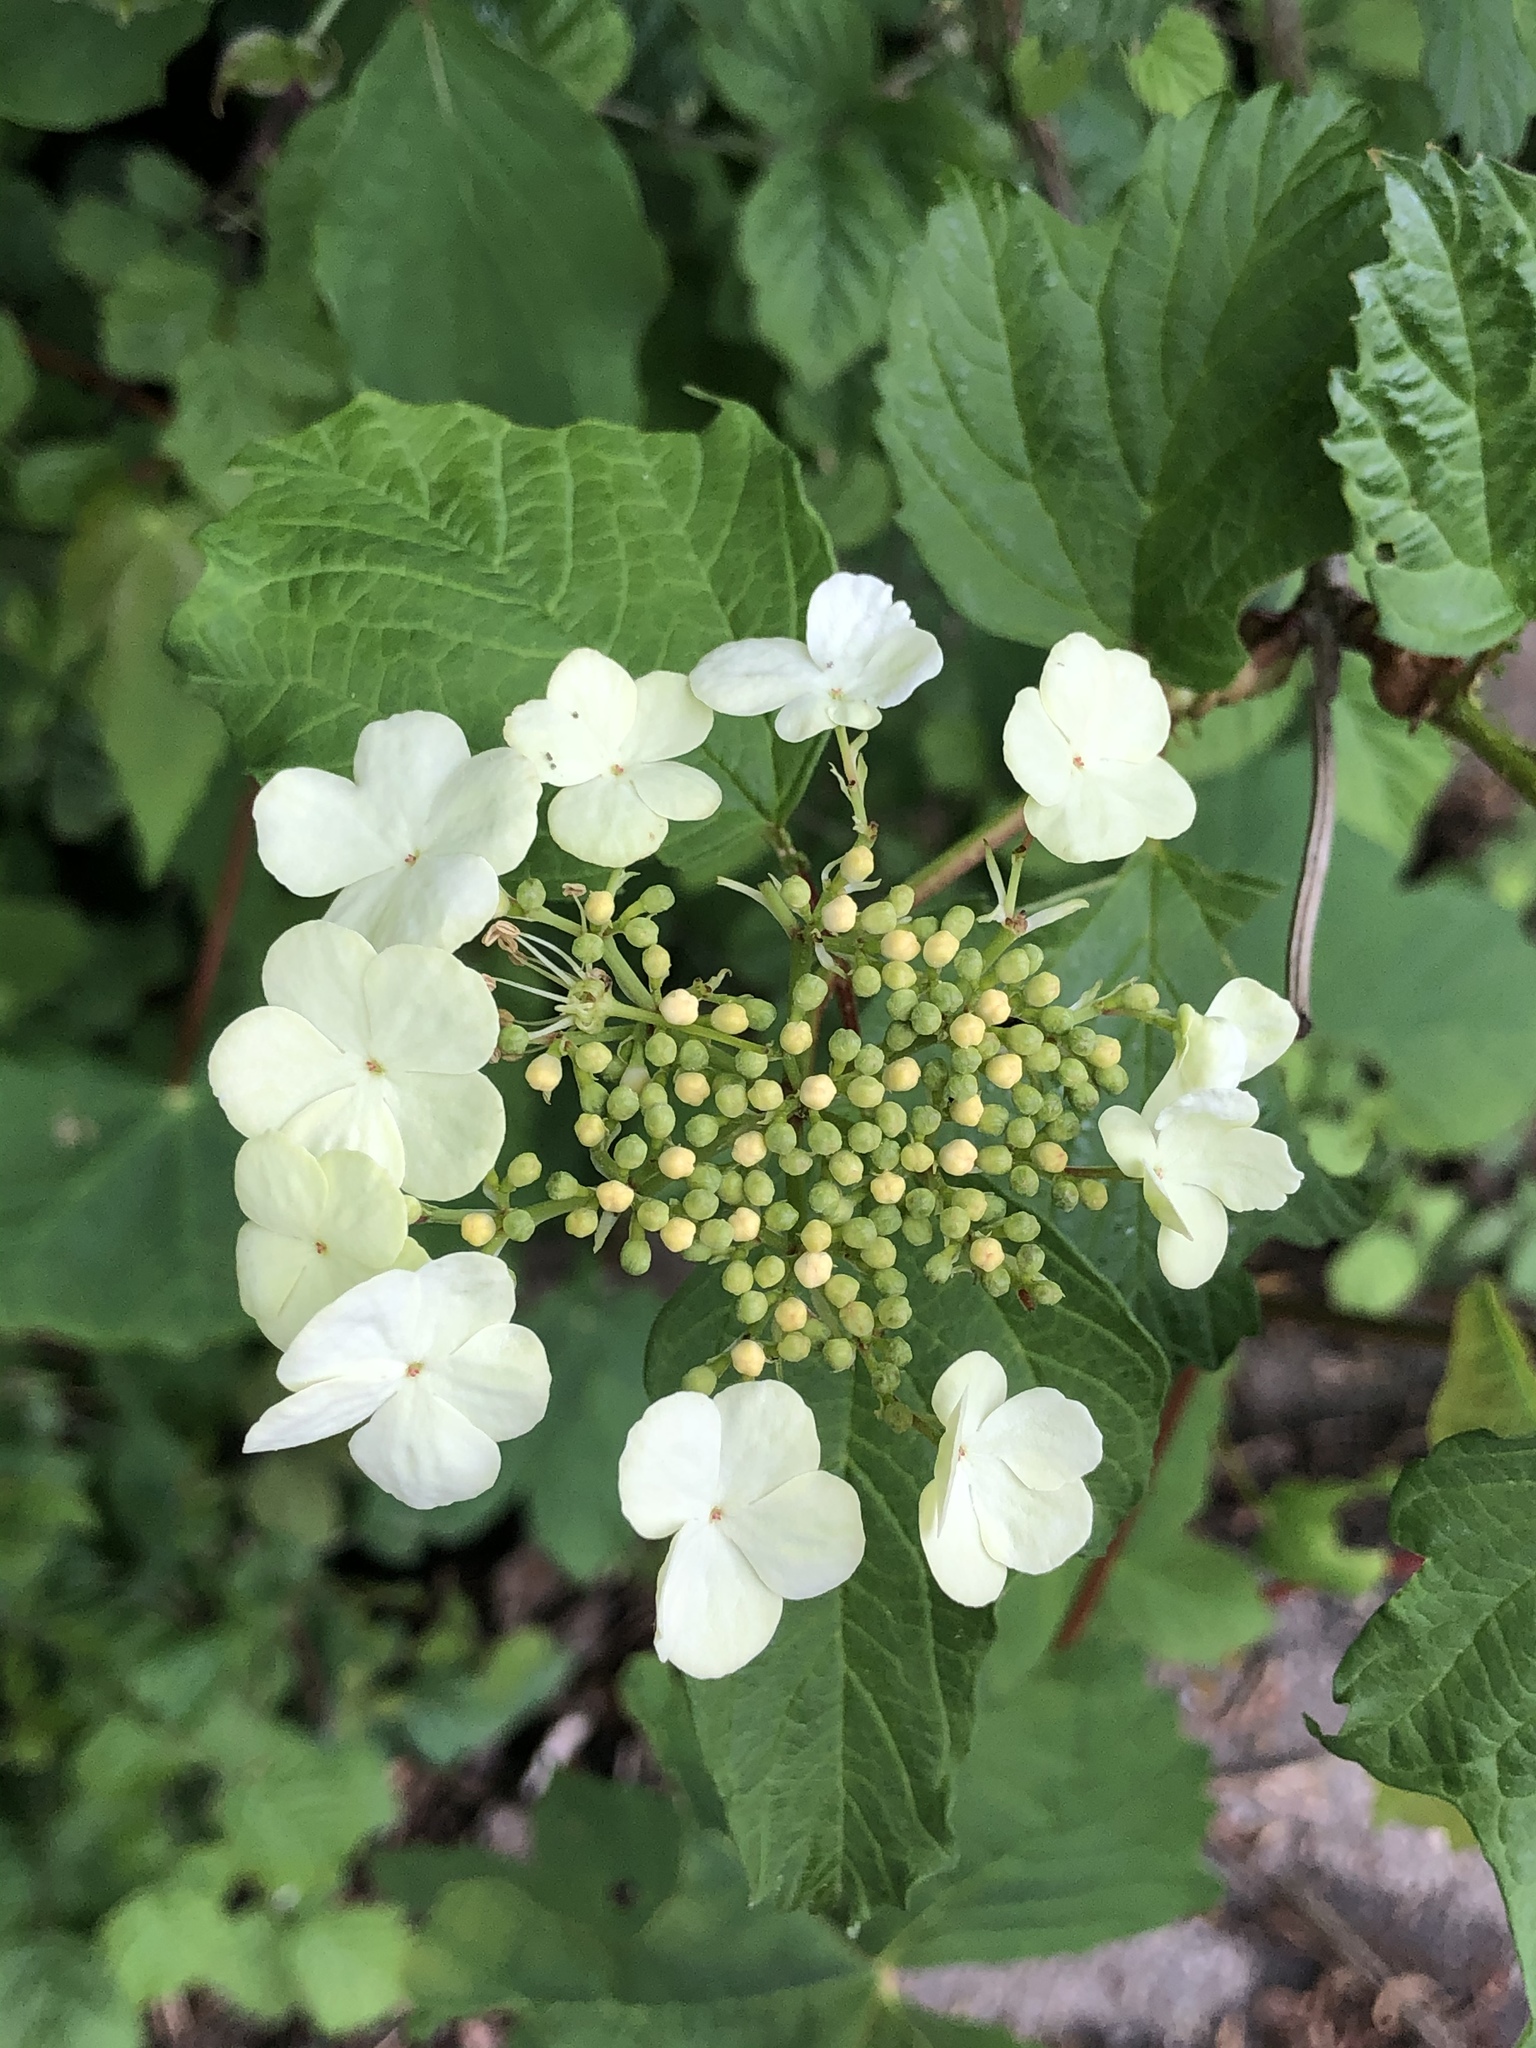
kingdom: Plantae
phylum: Tracheophyta
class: Magnoliopsida
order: Dipsacales
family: Viburnaceae
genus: Viburnum
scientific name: Viburnum opulus
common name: Guelder-rose
